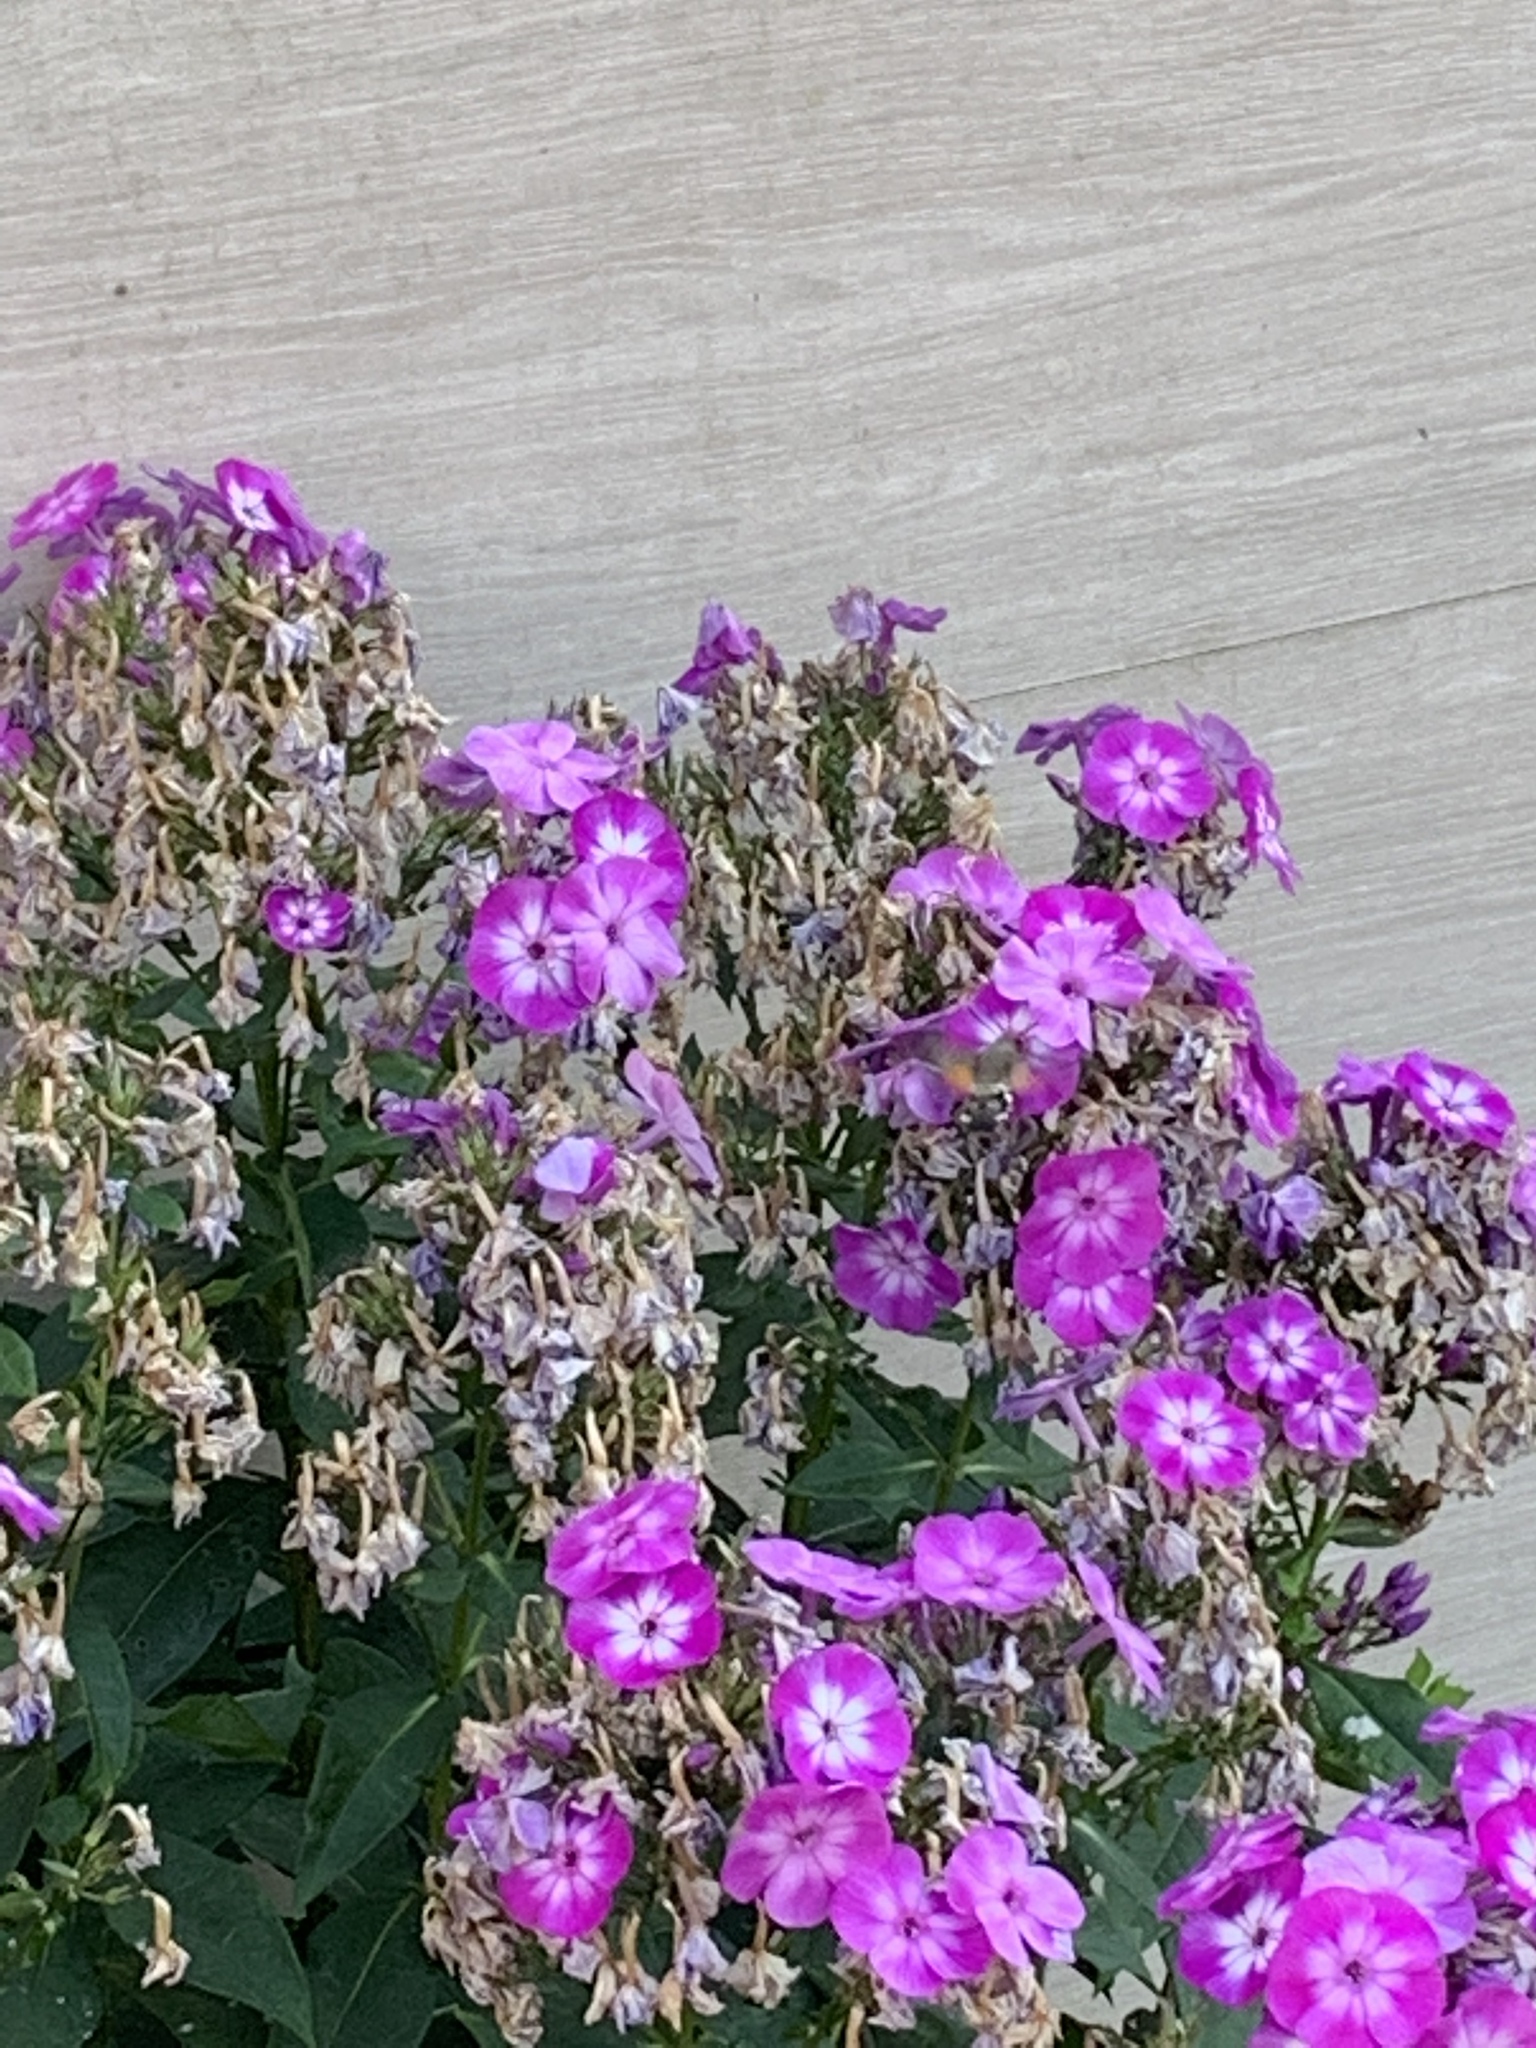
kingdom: Animalia
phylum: Arthropoda
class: Insecta
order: Lepidoptera
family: Sphingidae
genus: Macroglossum
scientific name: Macroglossum stellatarum
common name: Humming-bird hawk-moth
